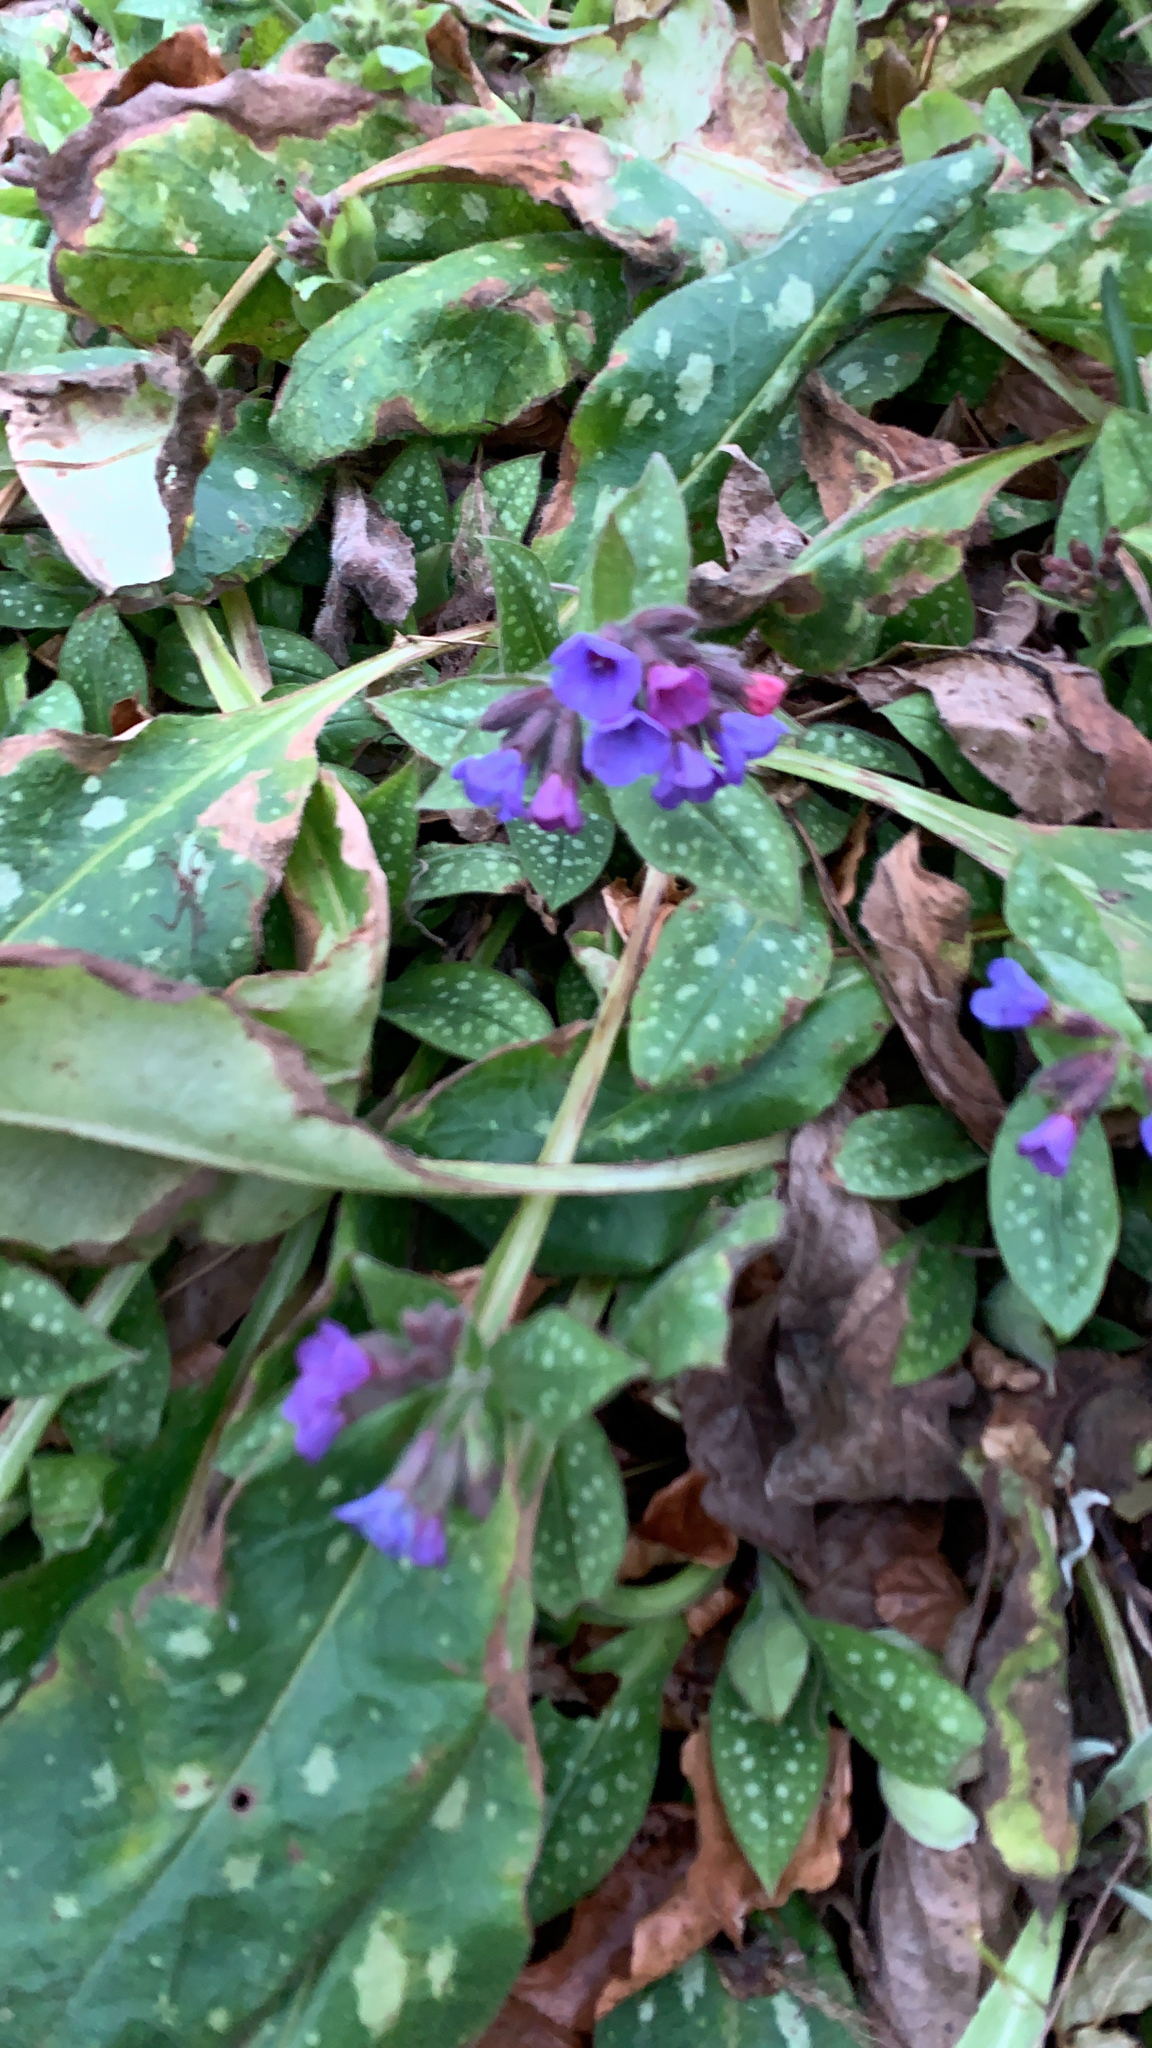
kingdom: Plantae
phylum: Tracheophyta
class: Magnoliopsida
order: Boraginales
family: Boraginaceae
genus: Pulmonaria
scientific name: Pulmonaria officinalis
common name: Lungwort
